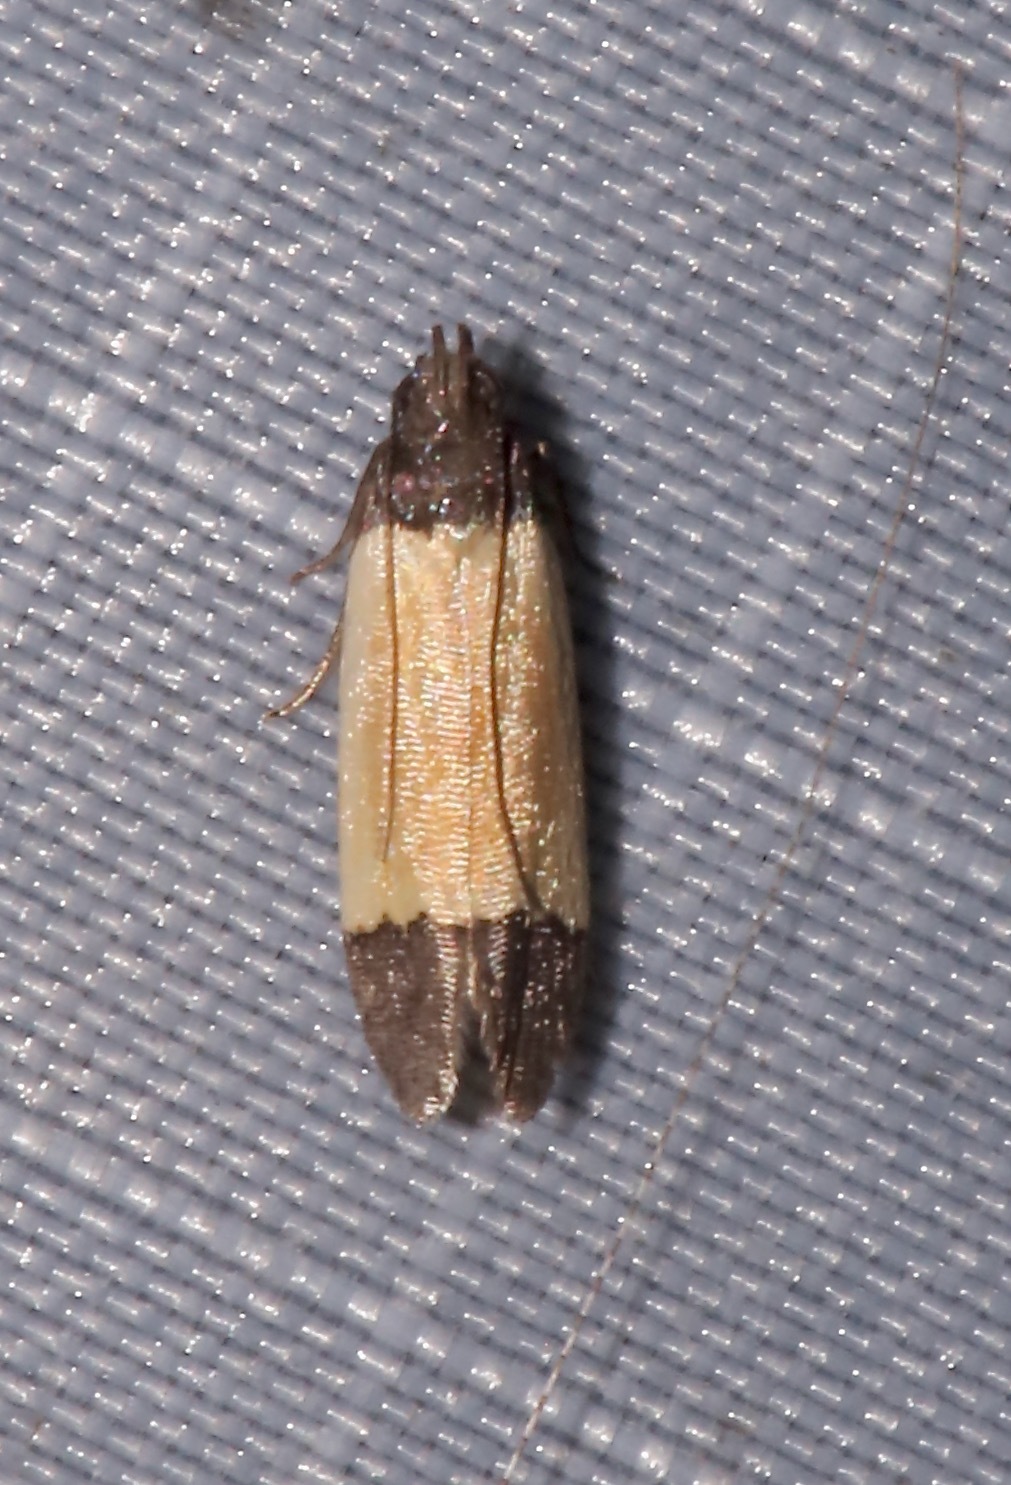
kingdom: Animalia
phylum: Arthropoda
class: Insecta
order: Lepidoptera
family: Gelechiidae
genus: Anacampsis
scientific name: Anacampsis coverdalella
